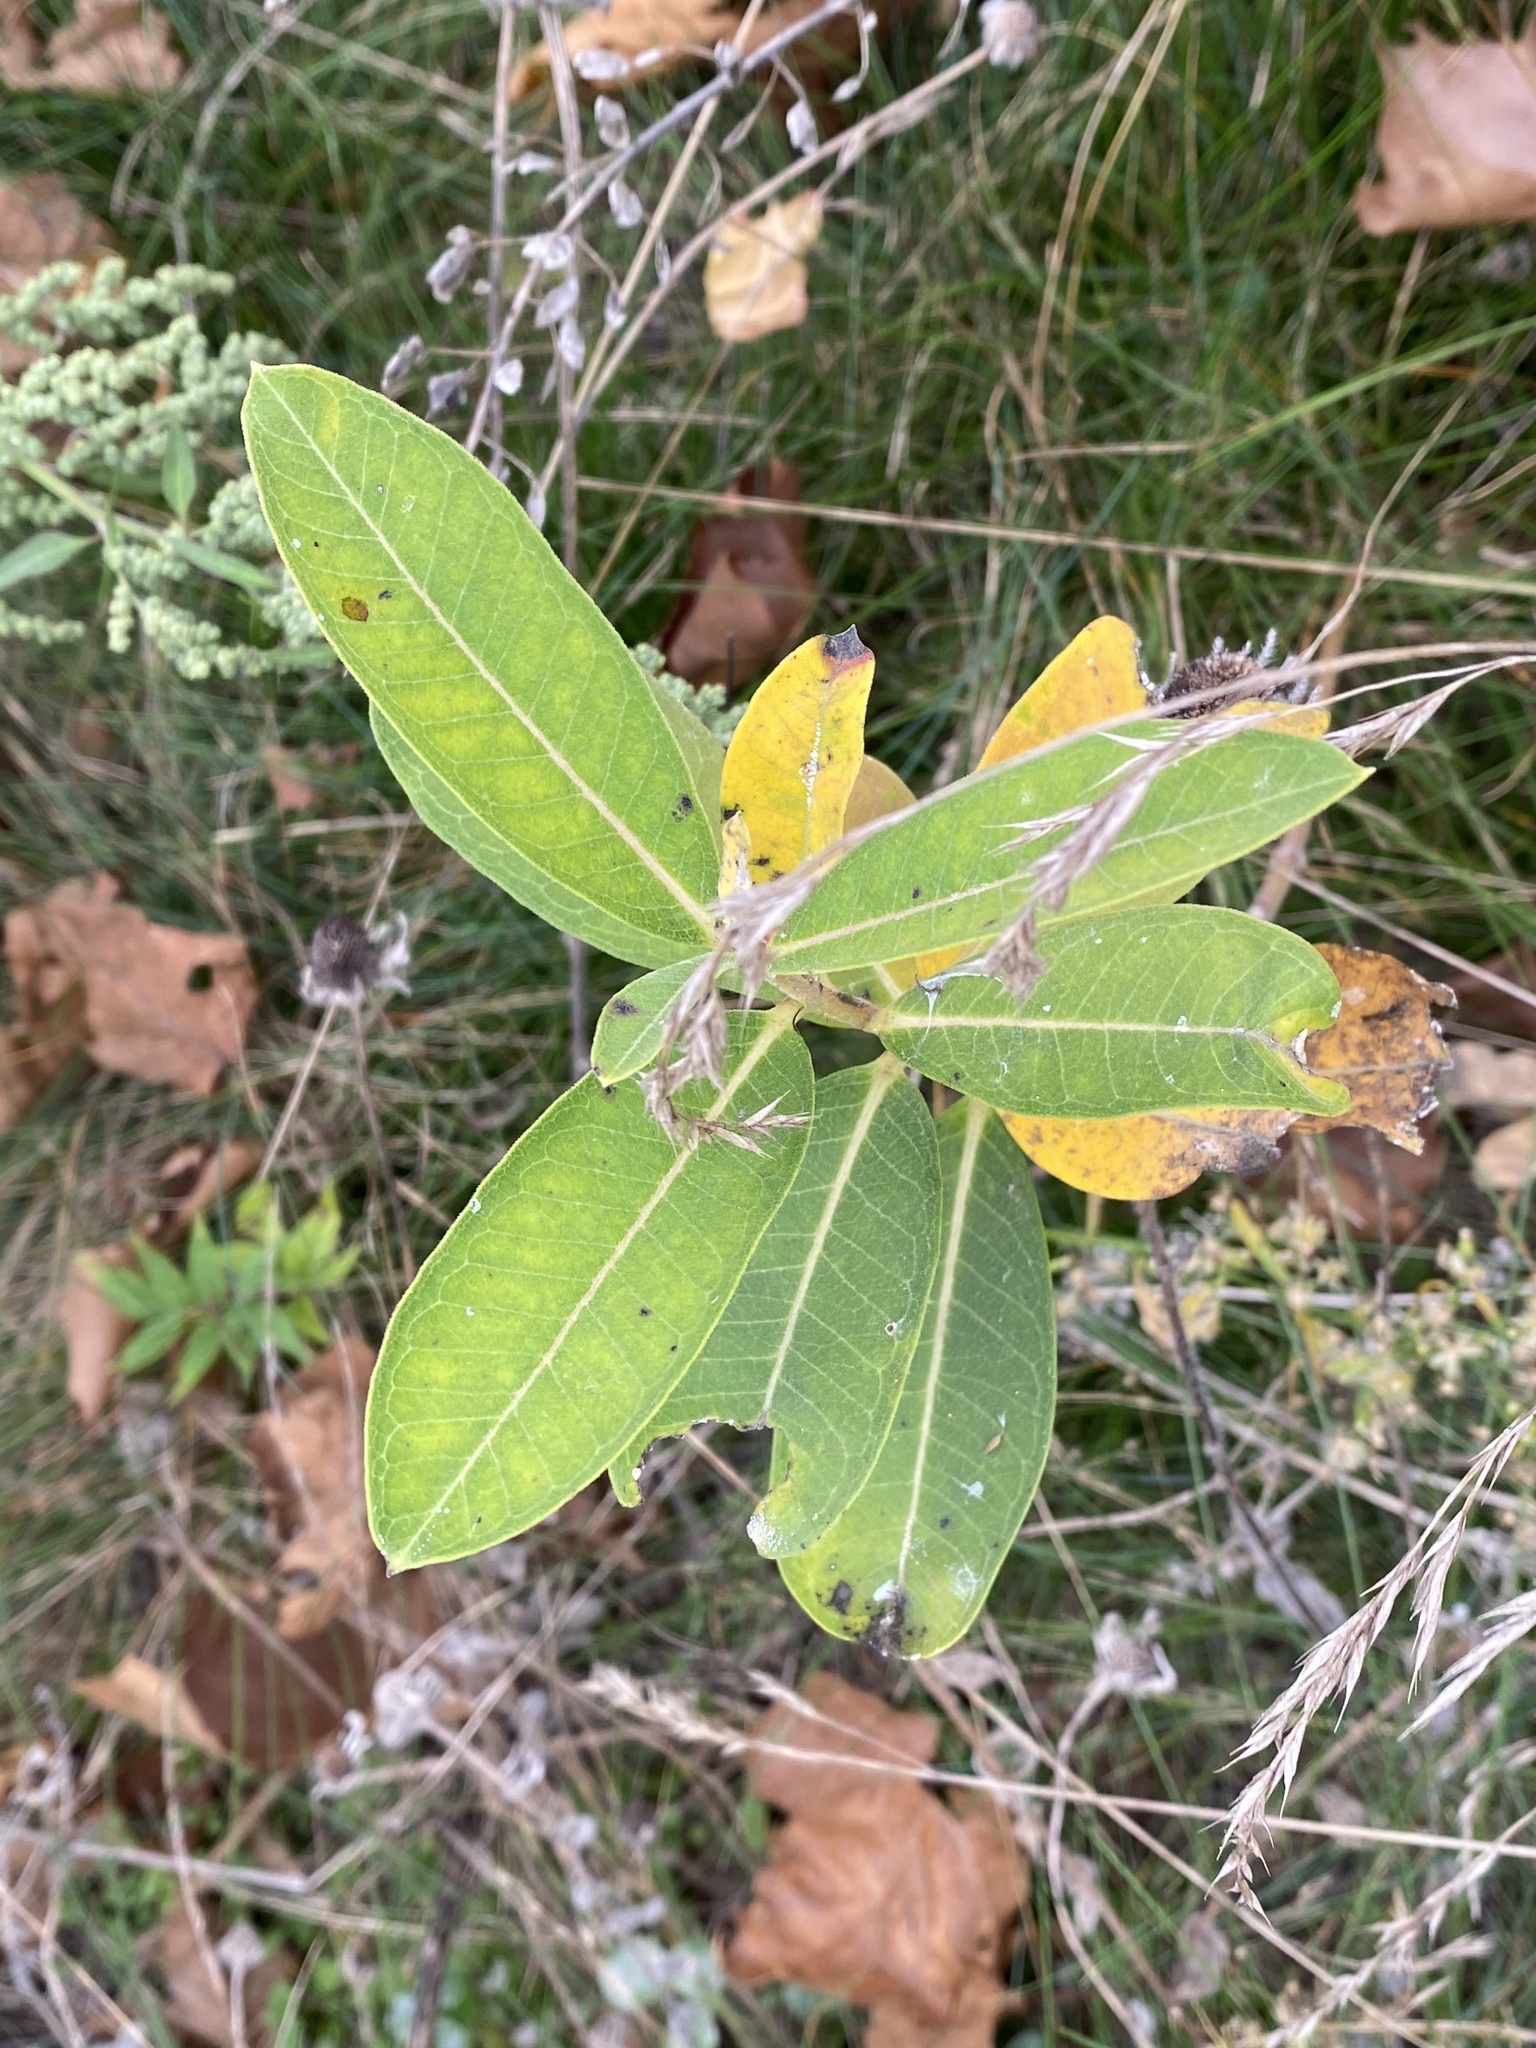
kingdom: Plantae
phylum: Tracheophyta
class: Magnoliopsida
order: Gentianales
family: Apocynaceae
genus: Asclepias
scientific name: Asclepias syriaca
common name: Common milkweed
